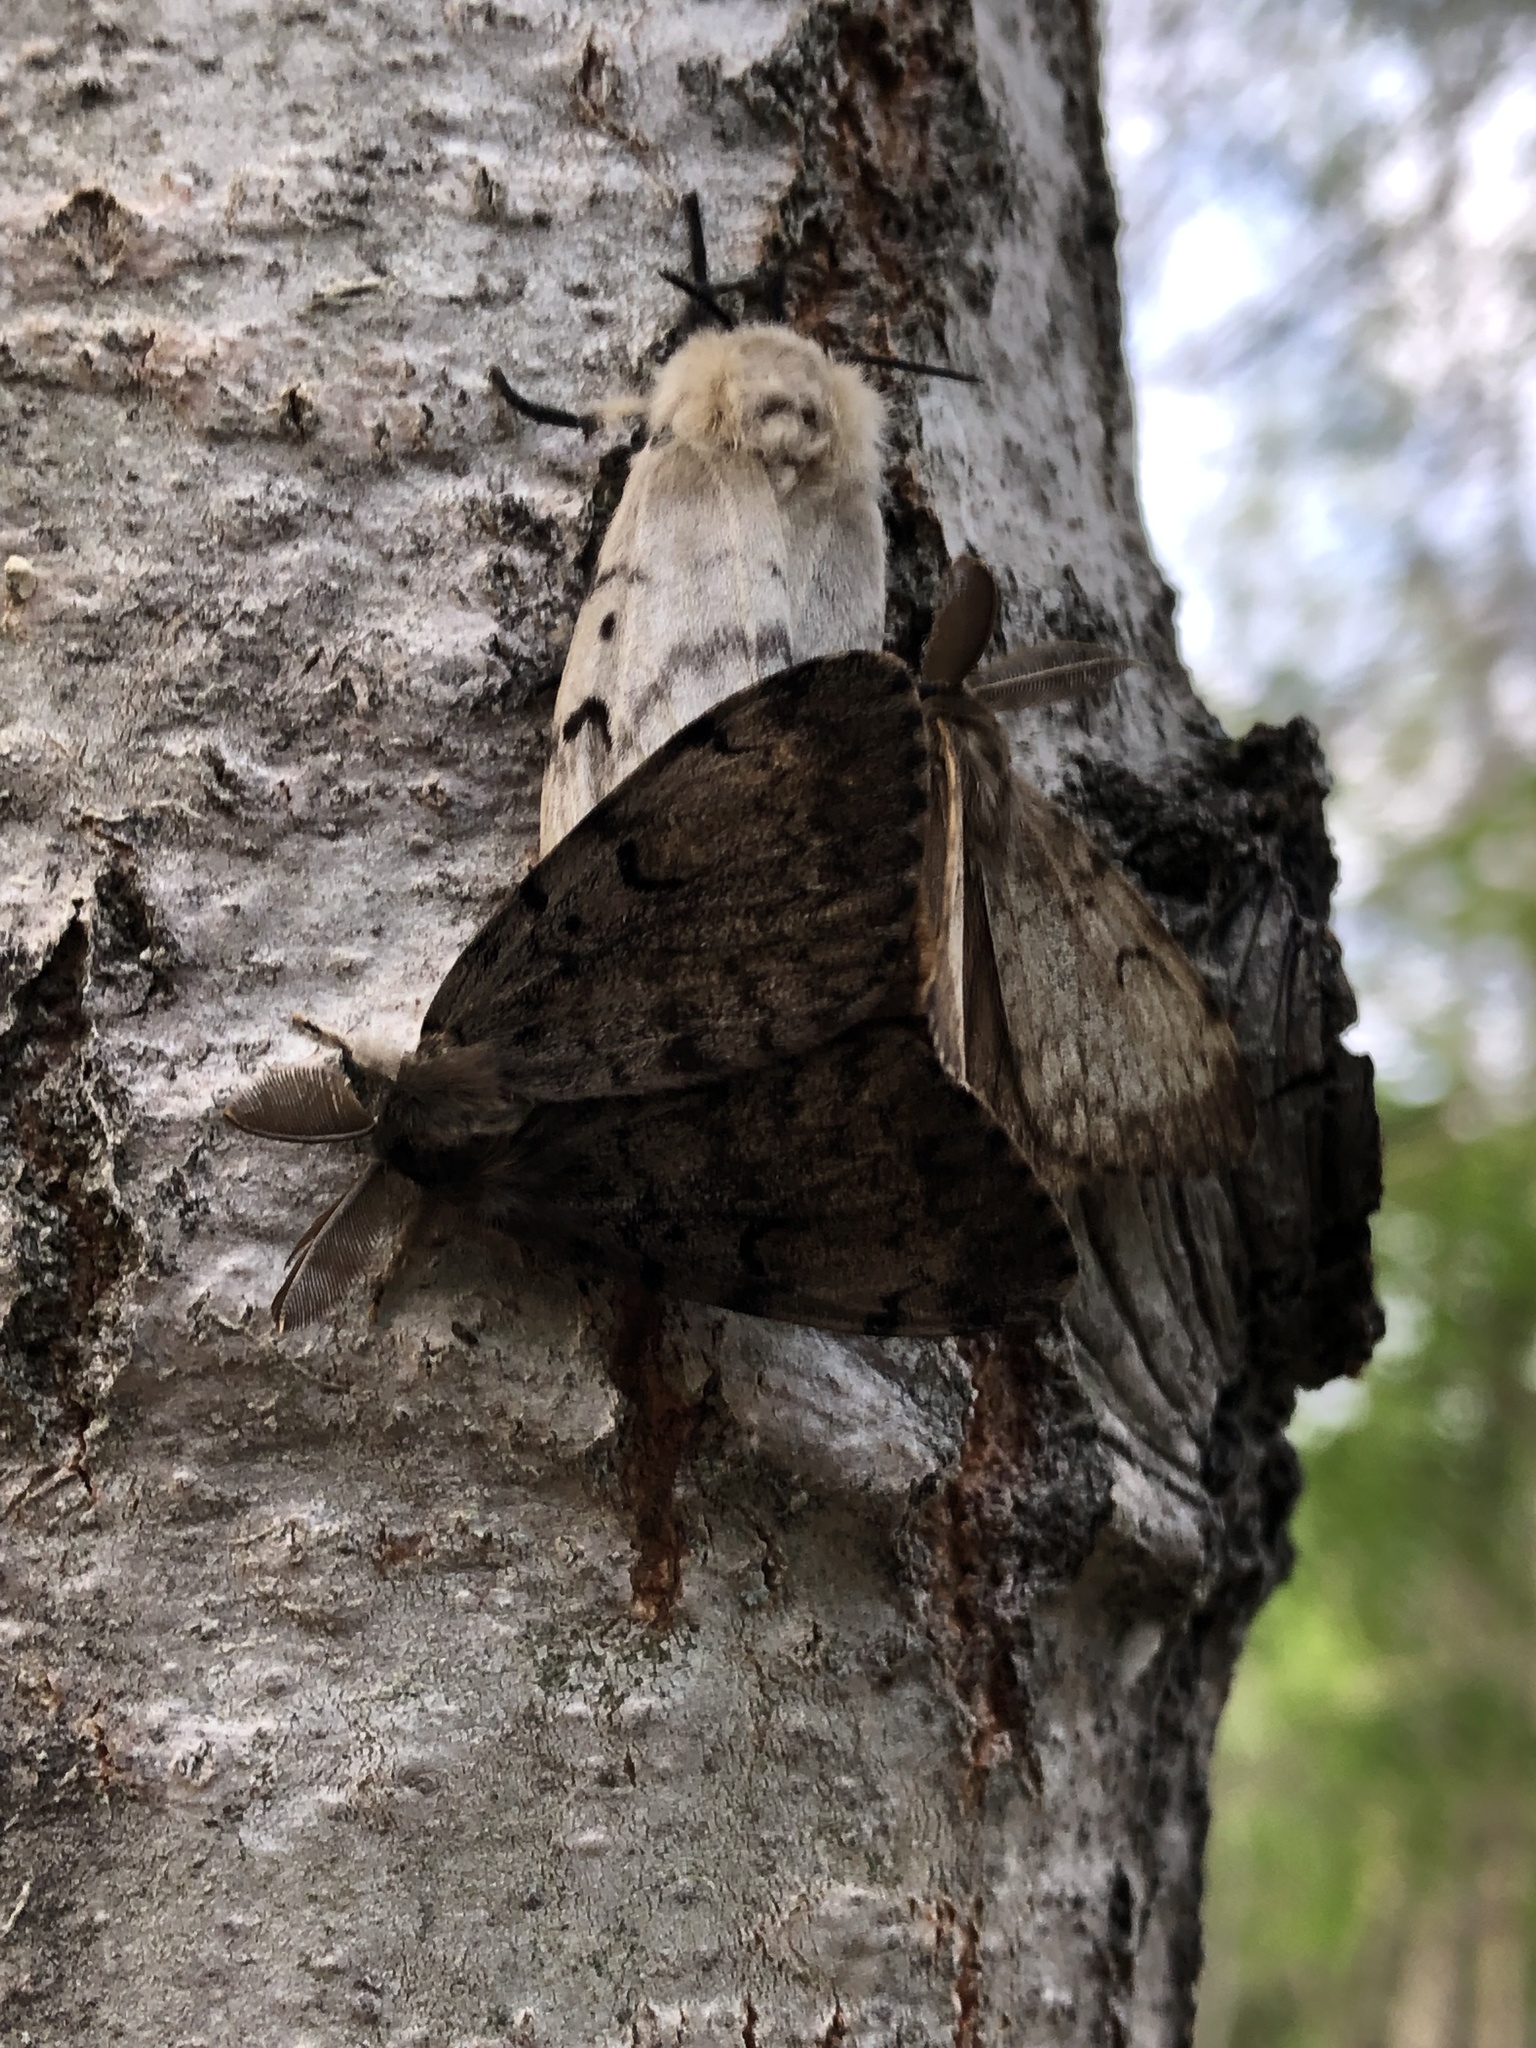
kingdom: Animalia
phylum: Arthropoda
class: Insecta
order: Lepidoptera
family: Erebidae
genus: Lymantria
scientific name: Lymantria dispar
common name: Gypsy moth
